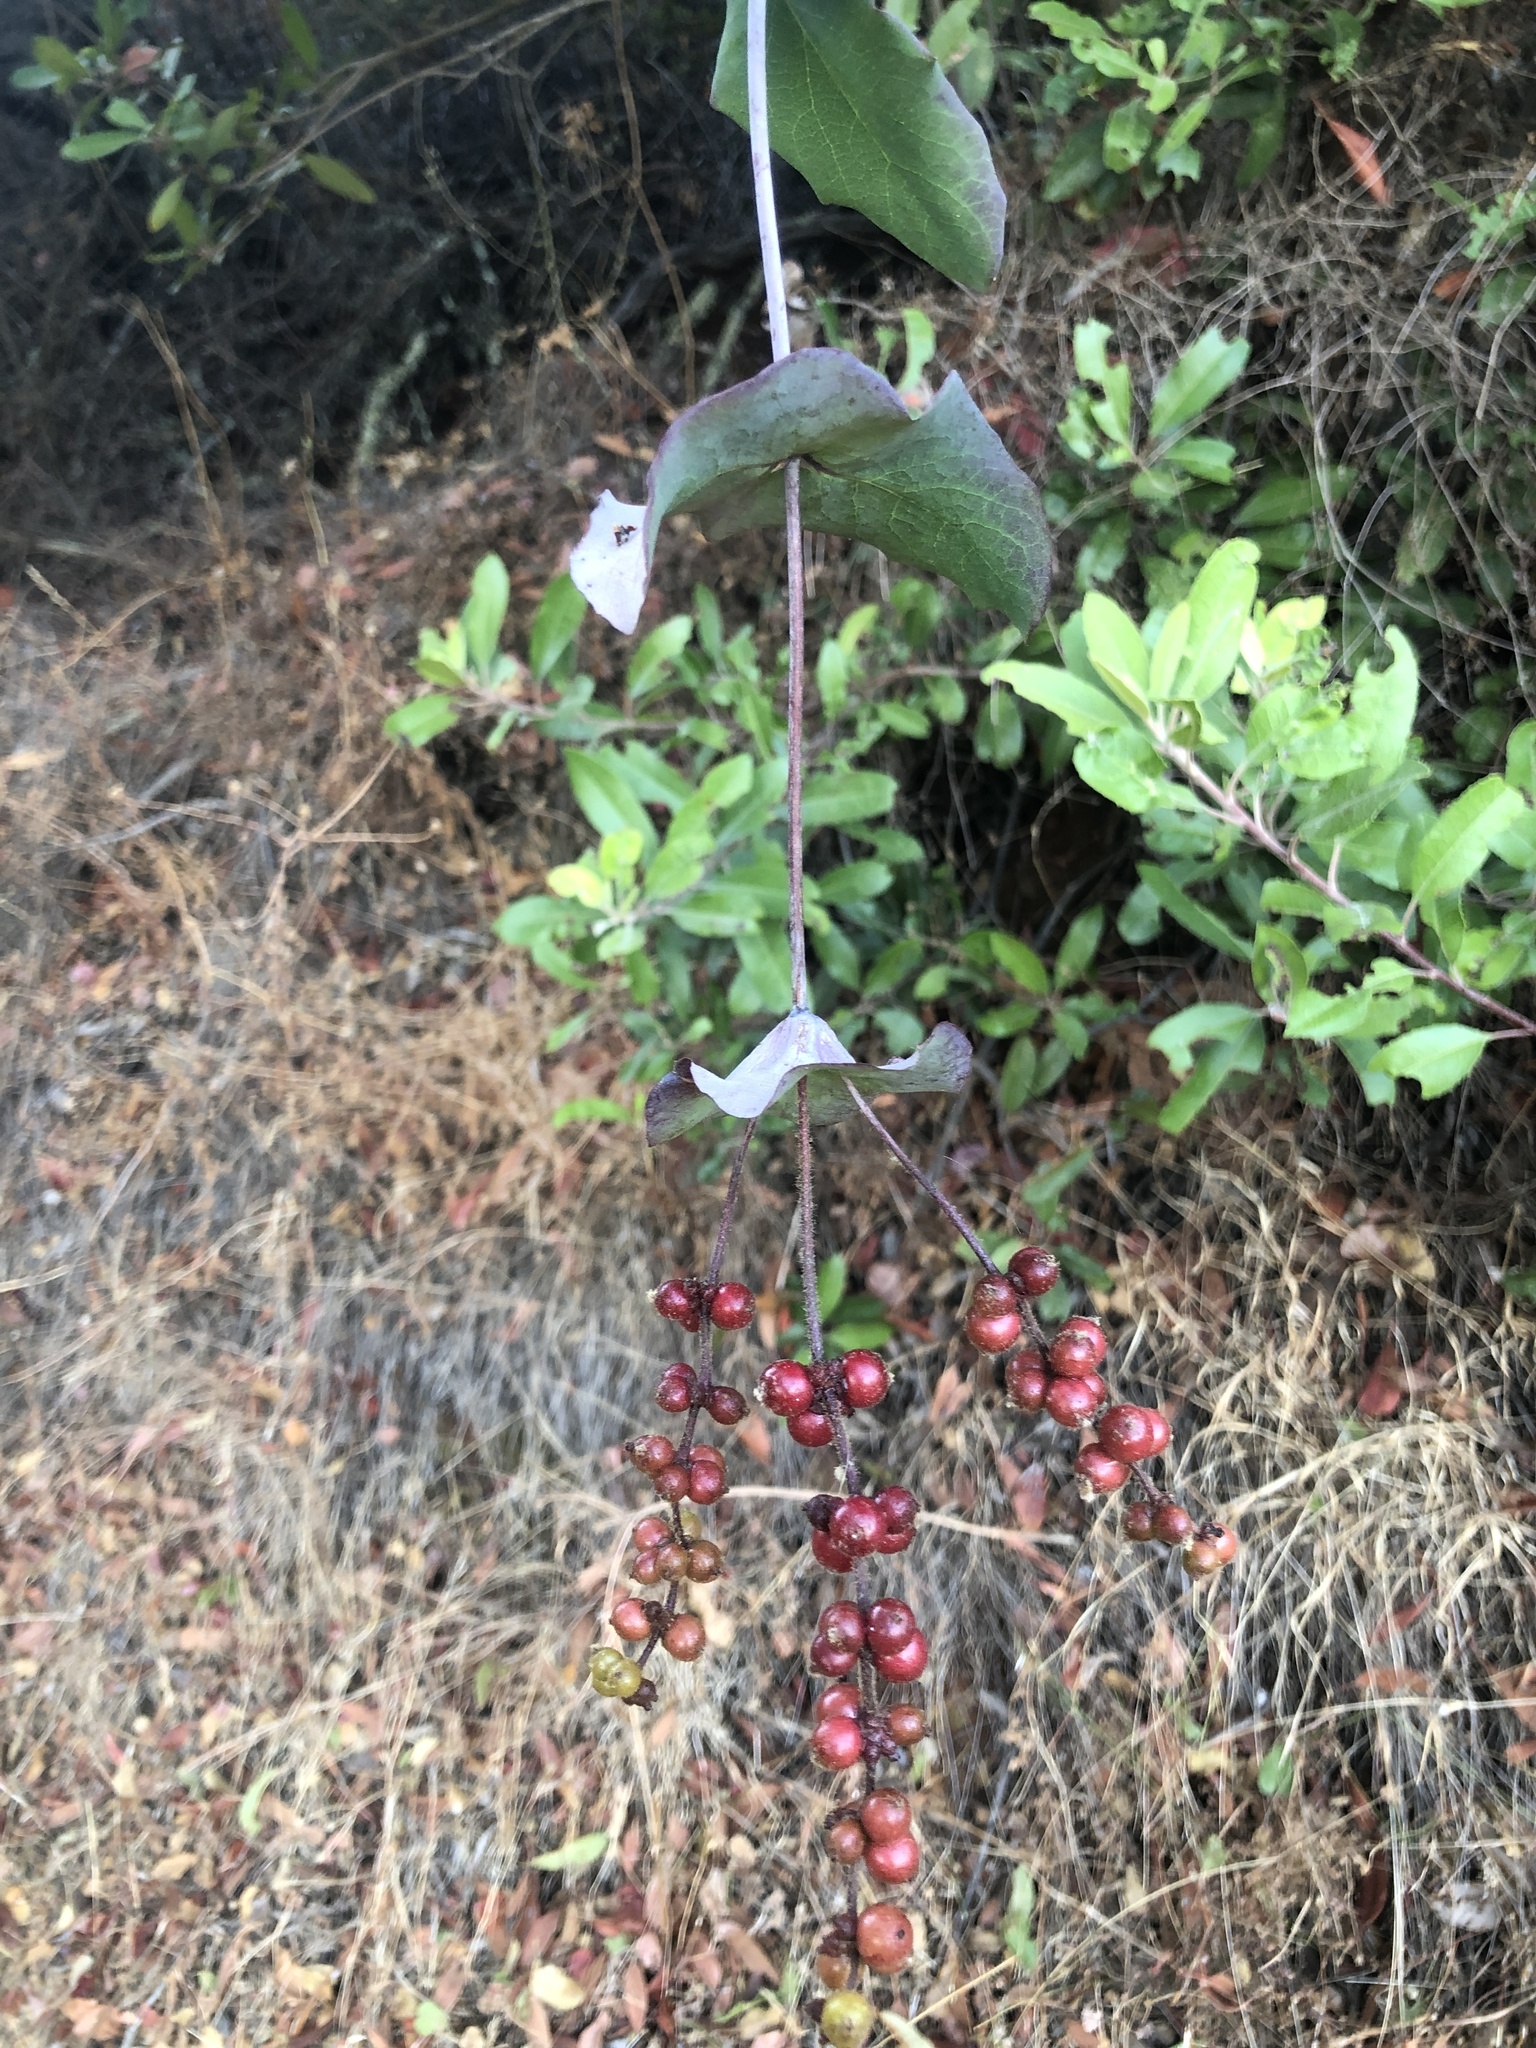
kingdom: Plantae
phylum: Tracheophyta
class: Magnoliopsida
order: Dipsacales
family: Caprifoliaceae
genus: Lonicera
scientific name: Lonicera hispidula
